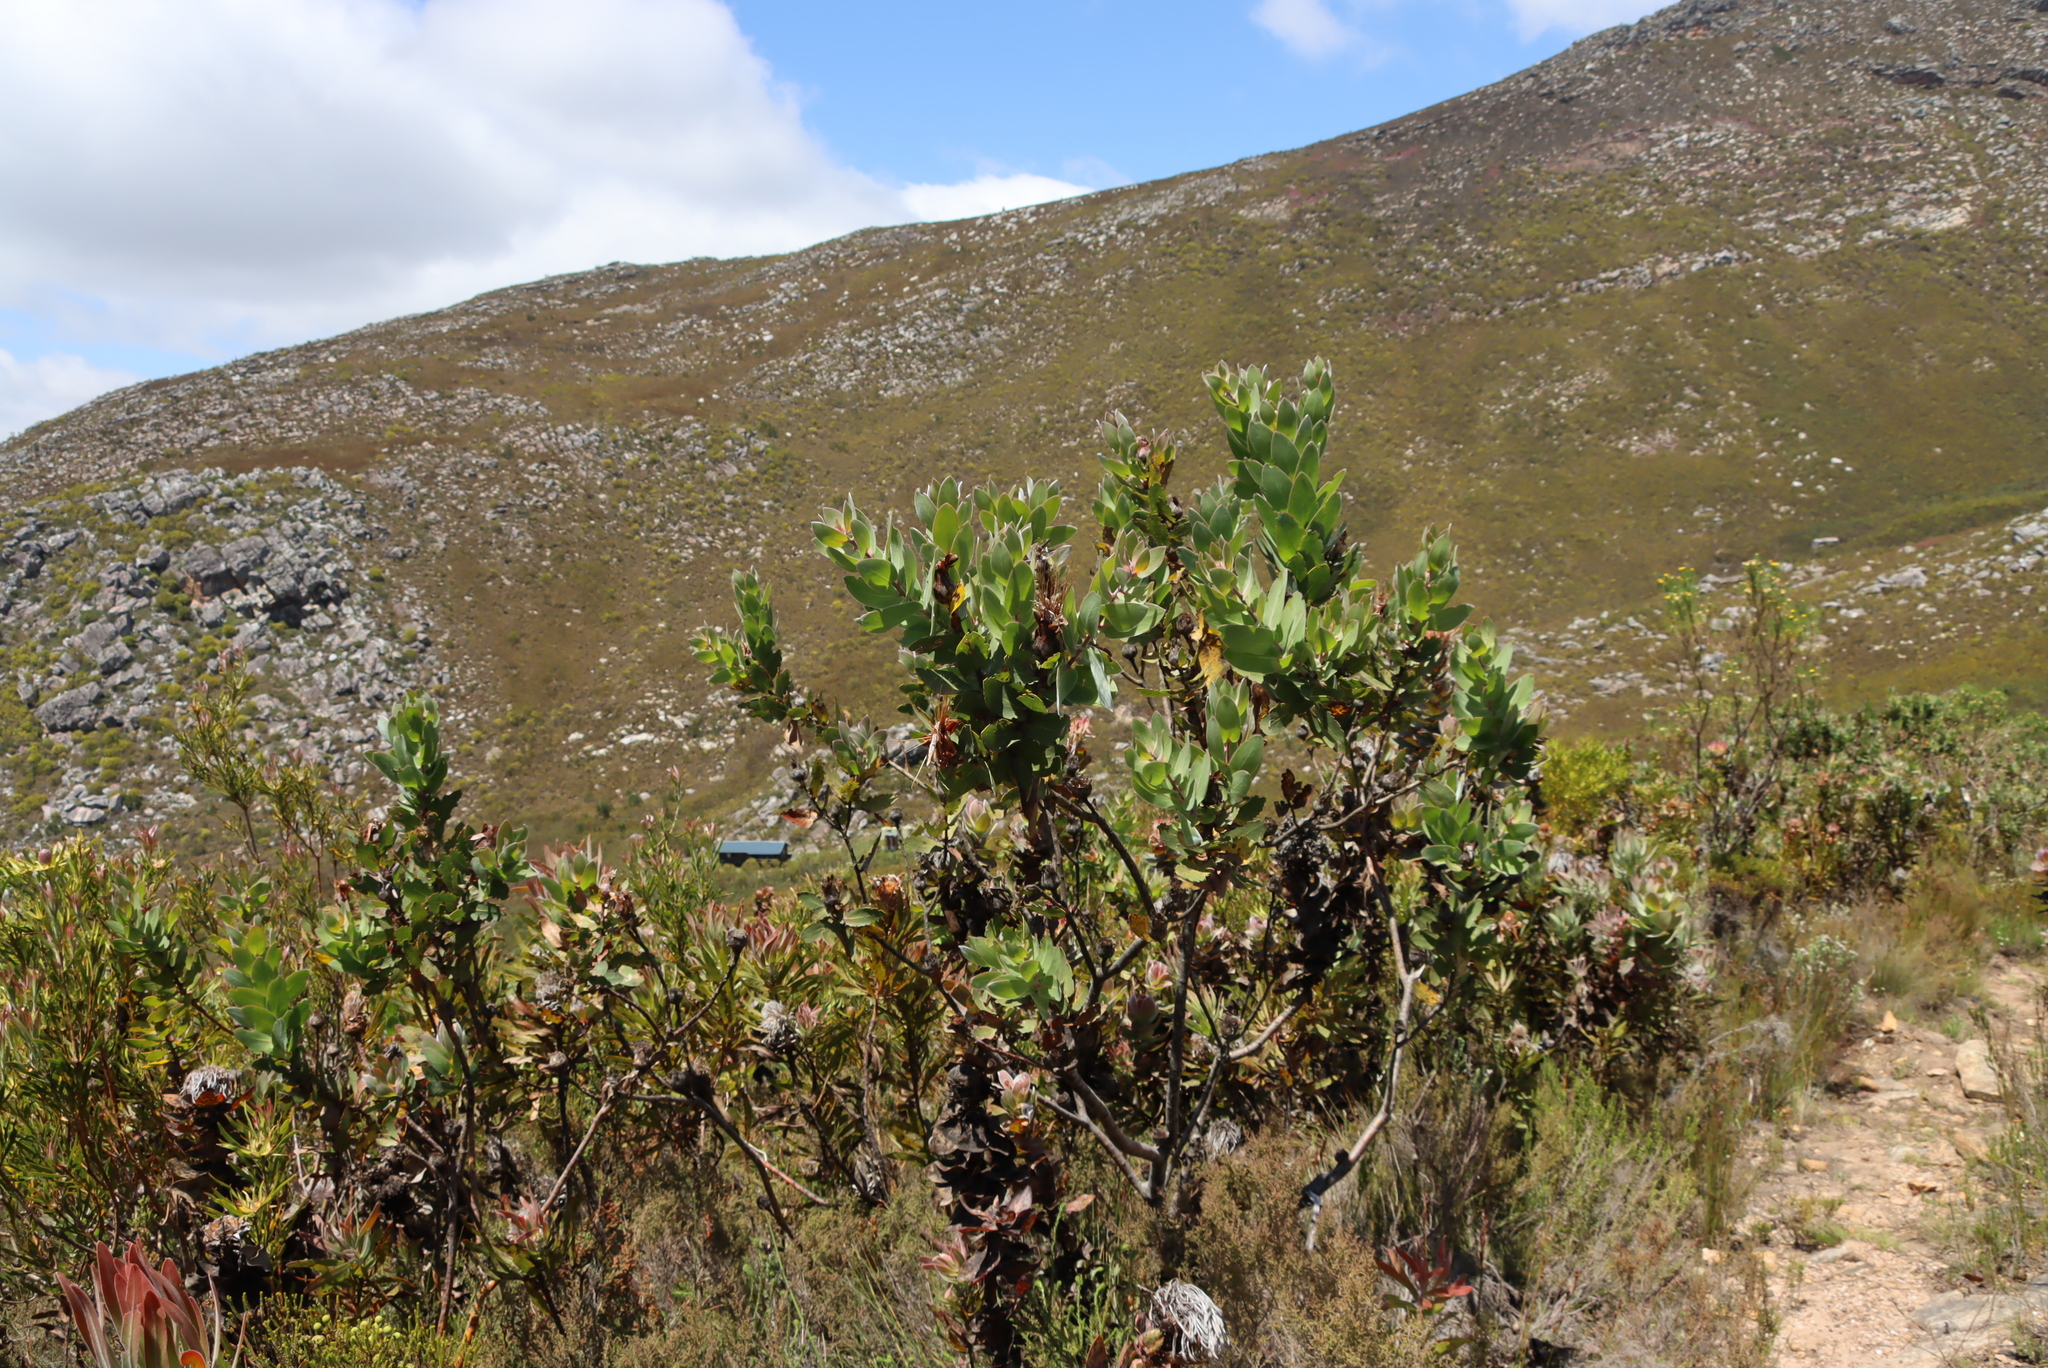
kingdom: Plantae
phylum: Tracheophyta
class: Magnoliopsida
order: Proteales
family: Proteaceae
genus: Protea
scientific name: Protea aurea
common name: Shuttlecock sugarbush
